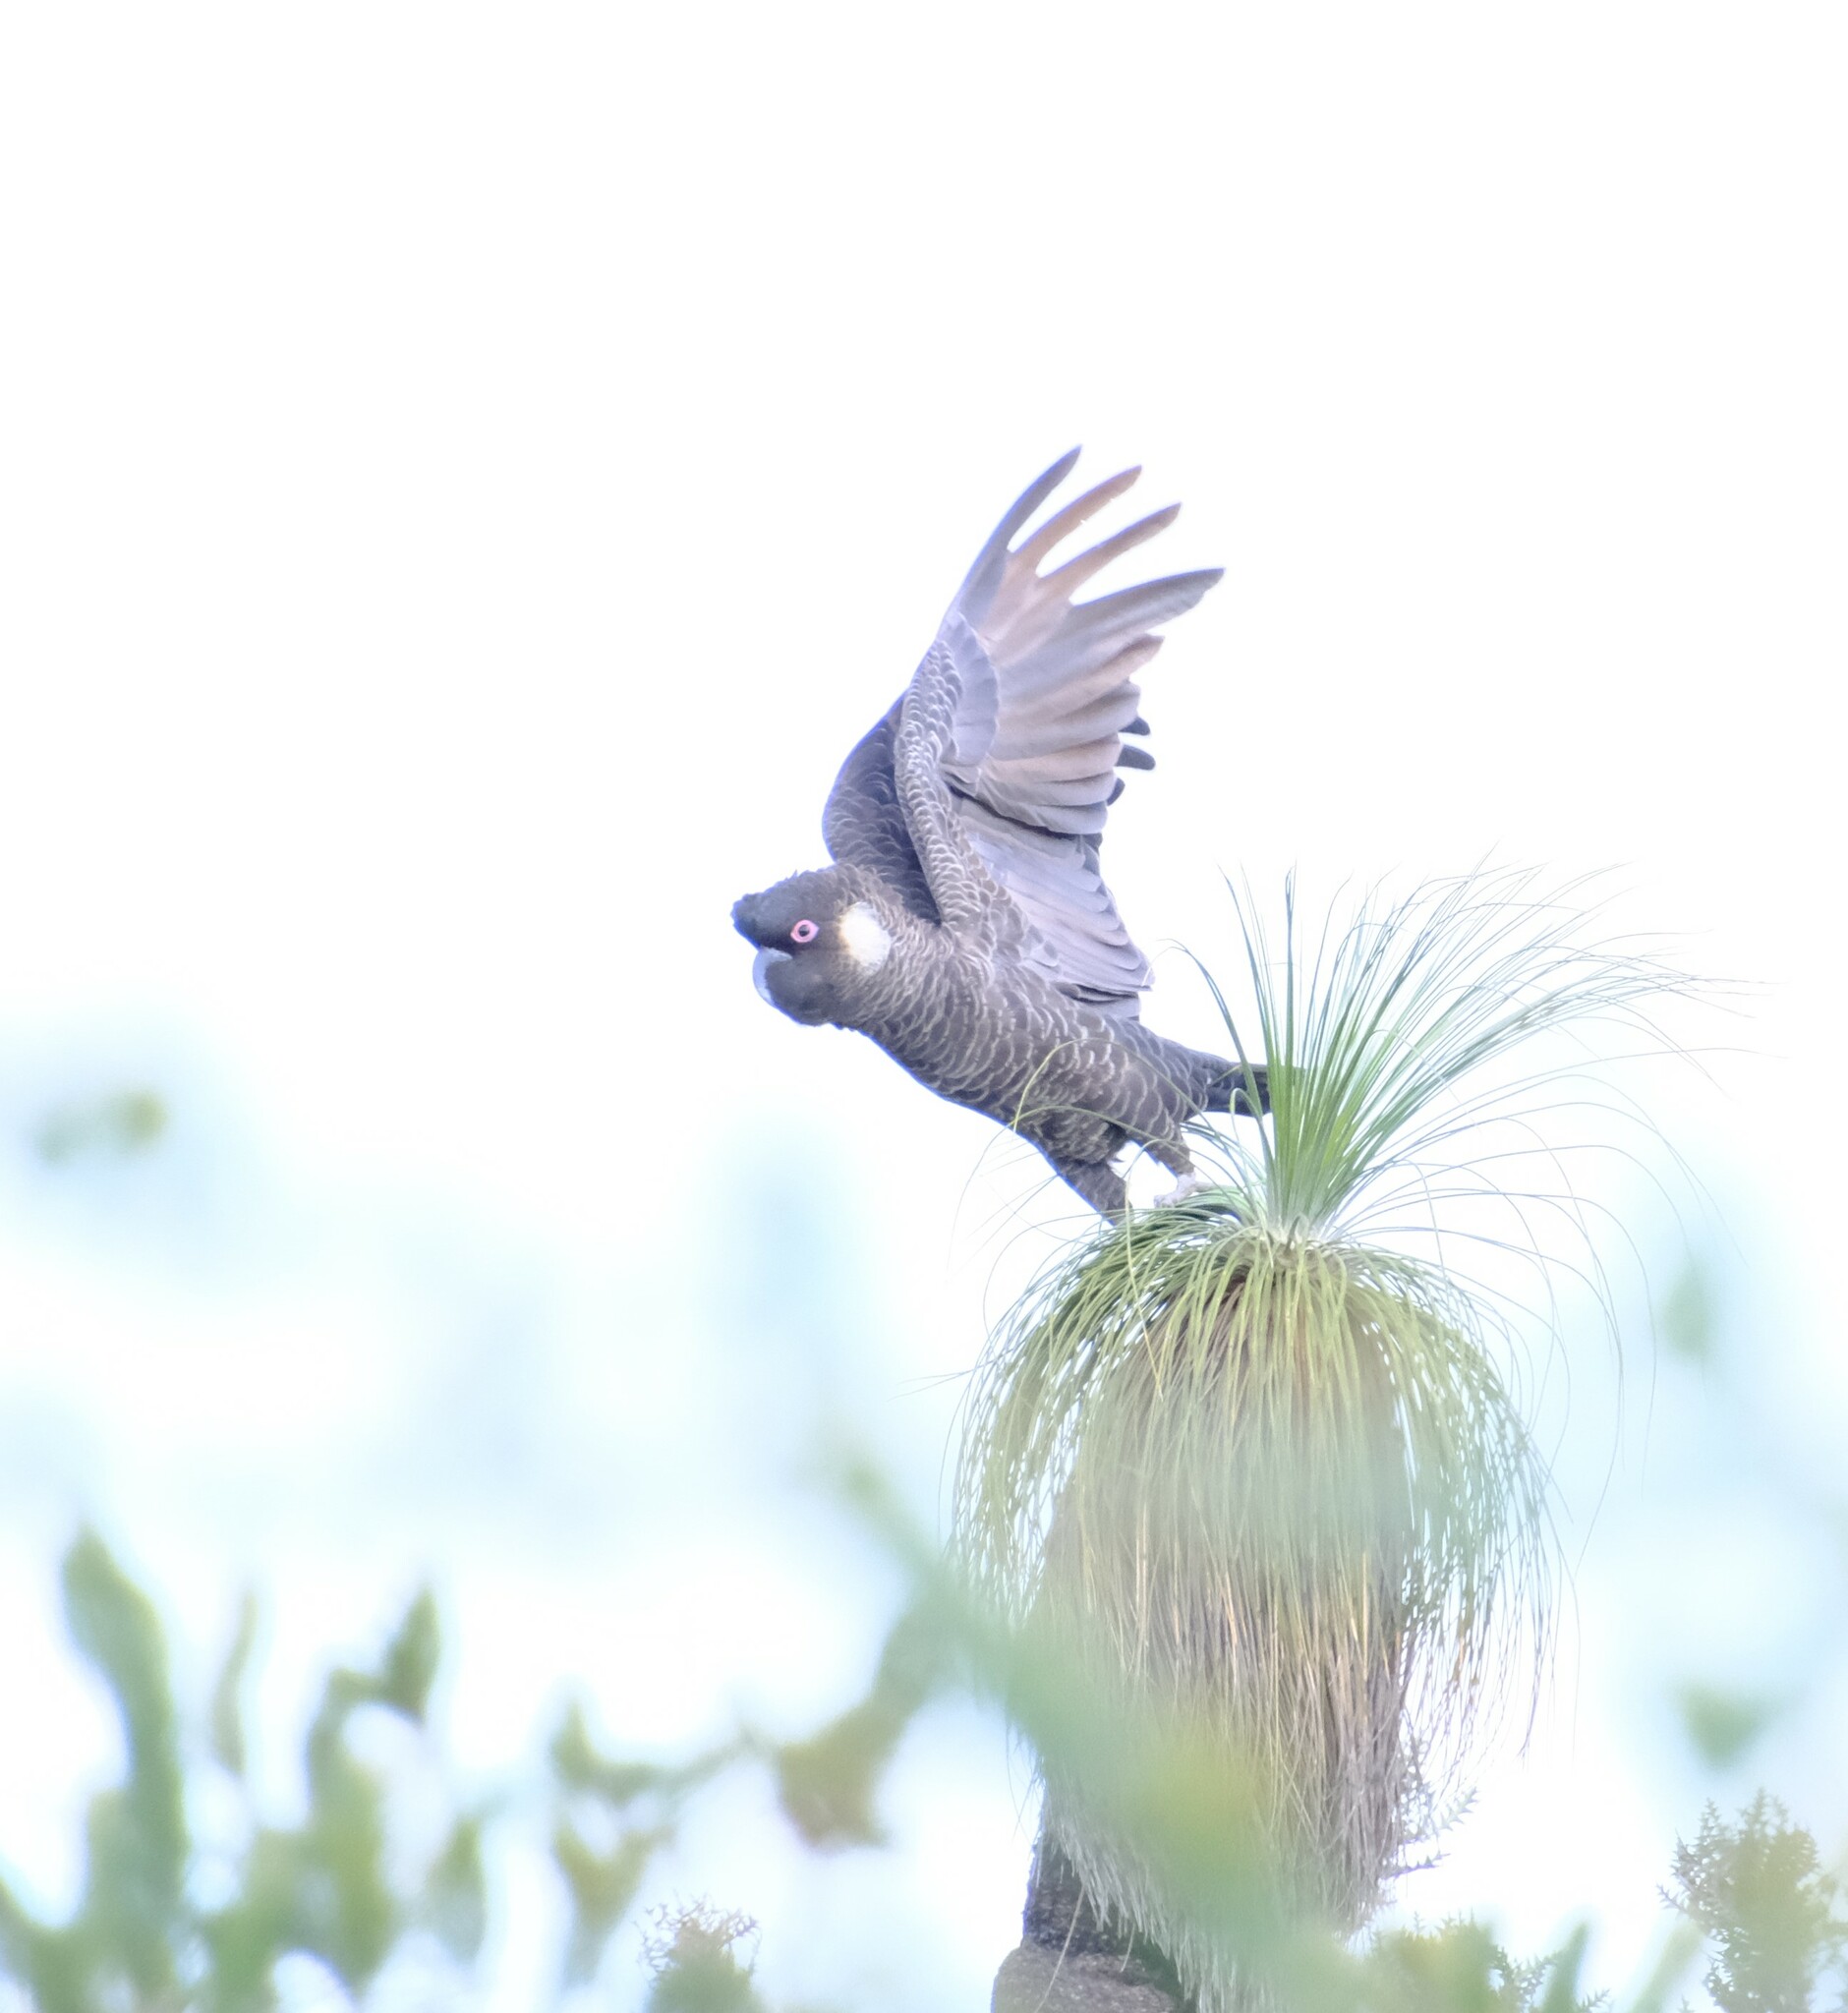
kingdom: Animalia
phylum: Chordata
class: Aves
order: Psittaciformes
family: Cacatuidae
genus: Zanda
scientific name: Zanda latirostris
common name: Short-billed black-cockatoo
